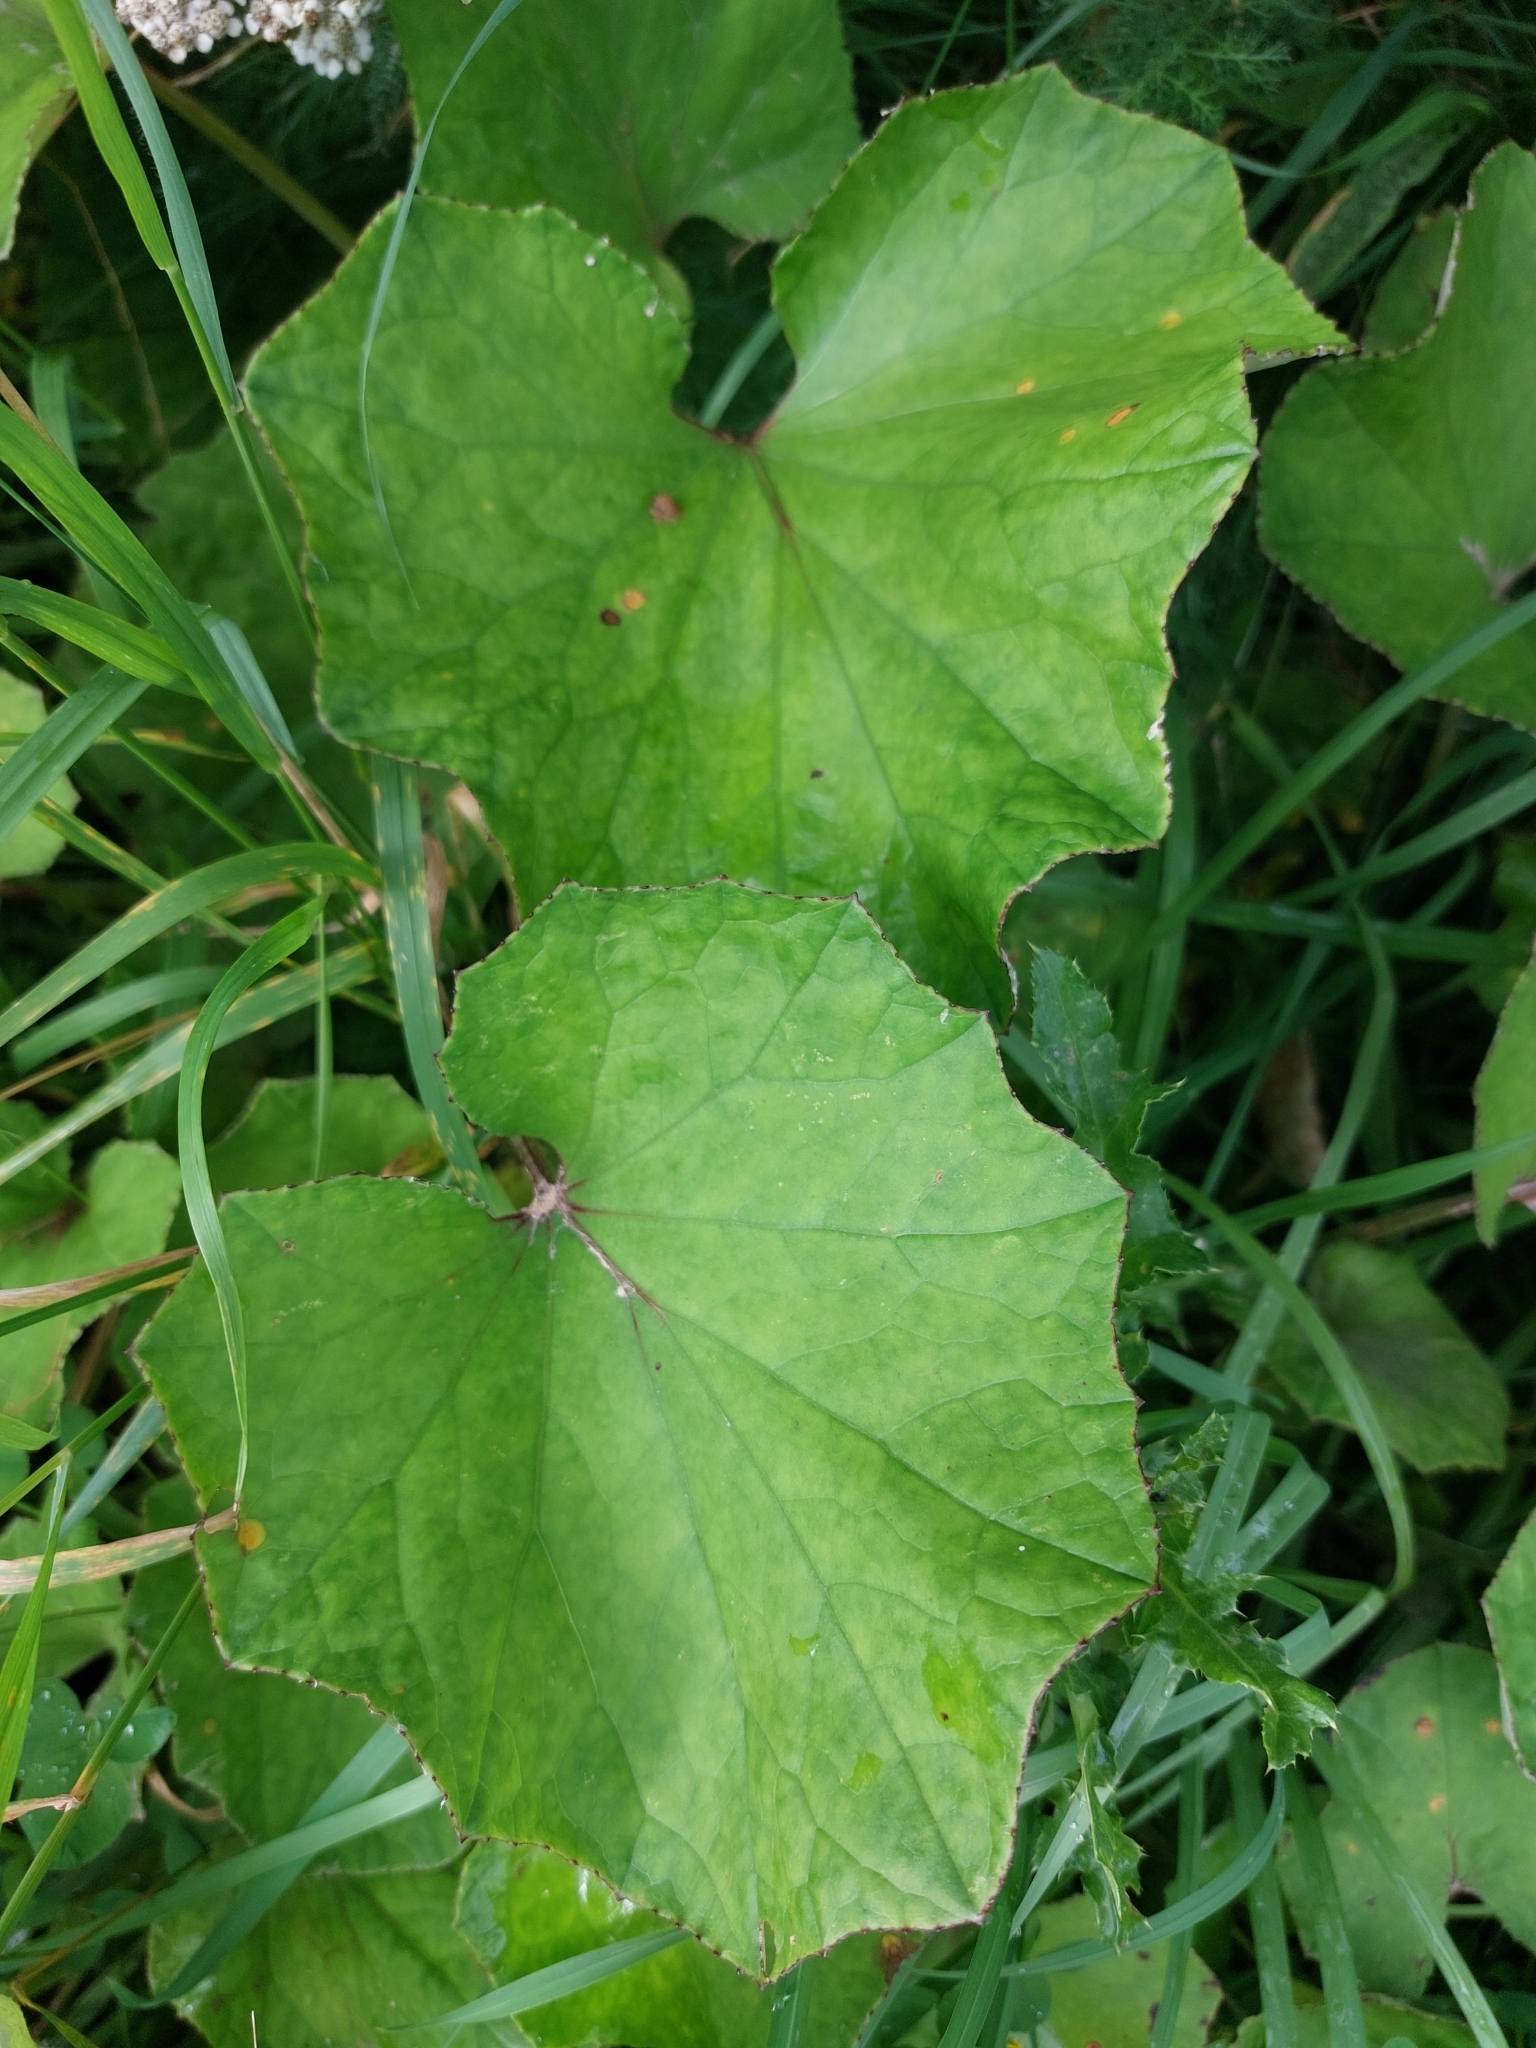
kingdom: Plantae
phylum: Tracheophyta
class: Magnoliopsida
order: Asterales
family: Asteraceae
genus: Tussilago
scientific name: Tussilago farfara
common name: Coltsfoot
